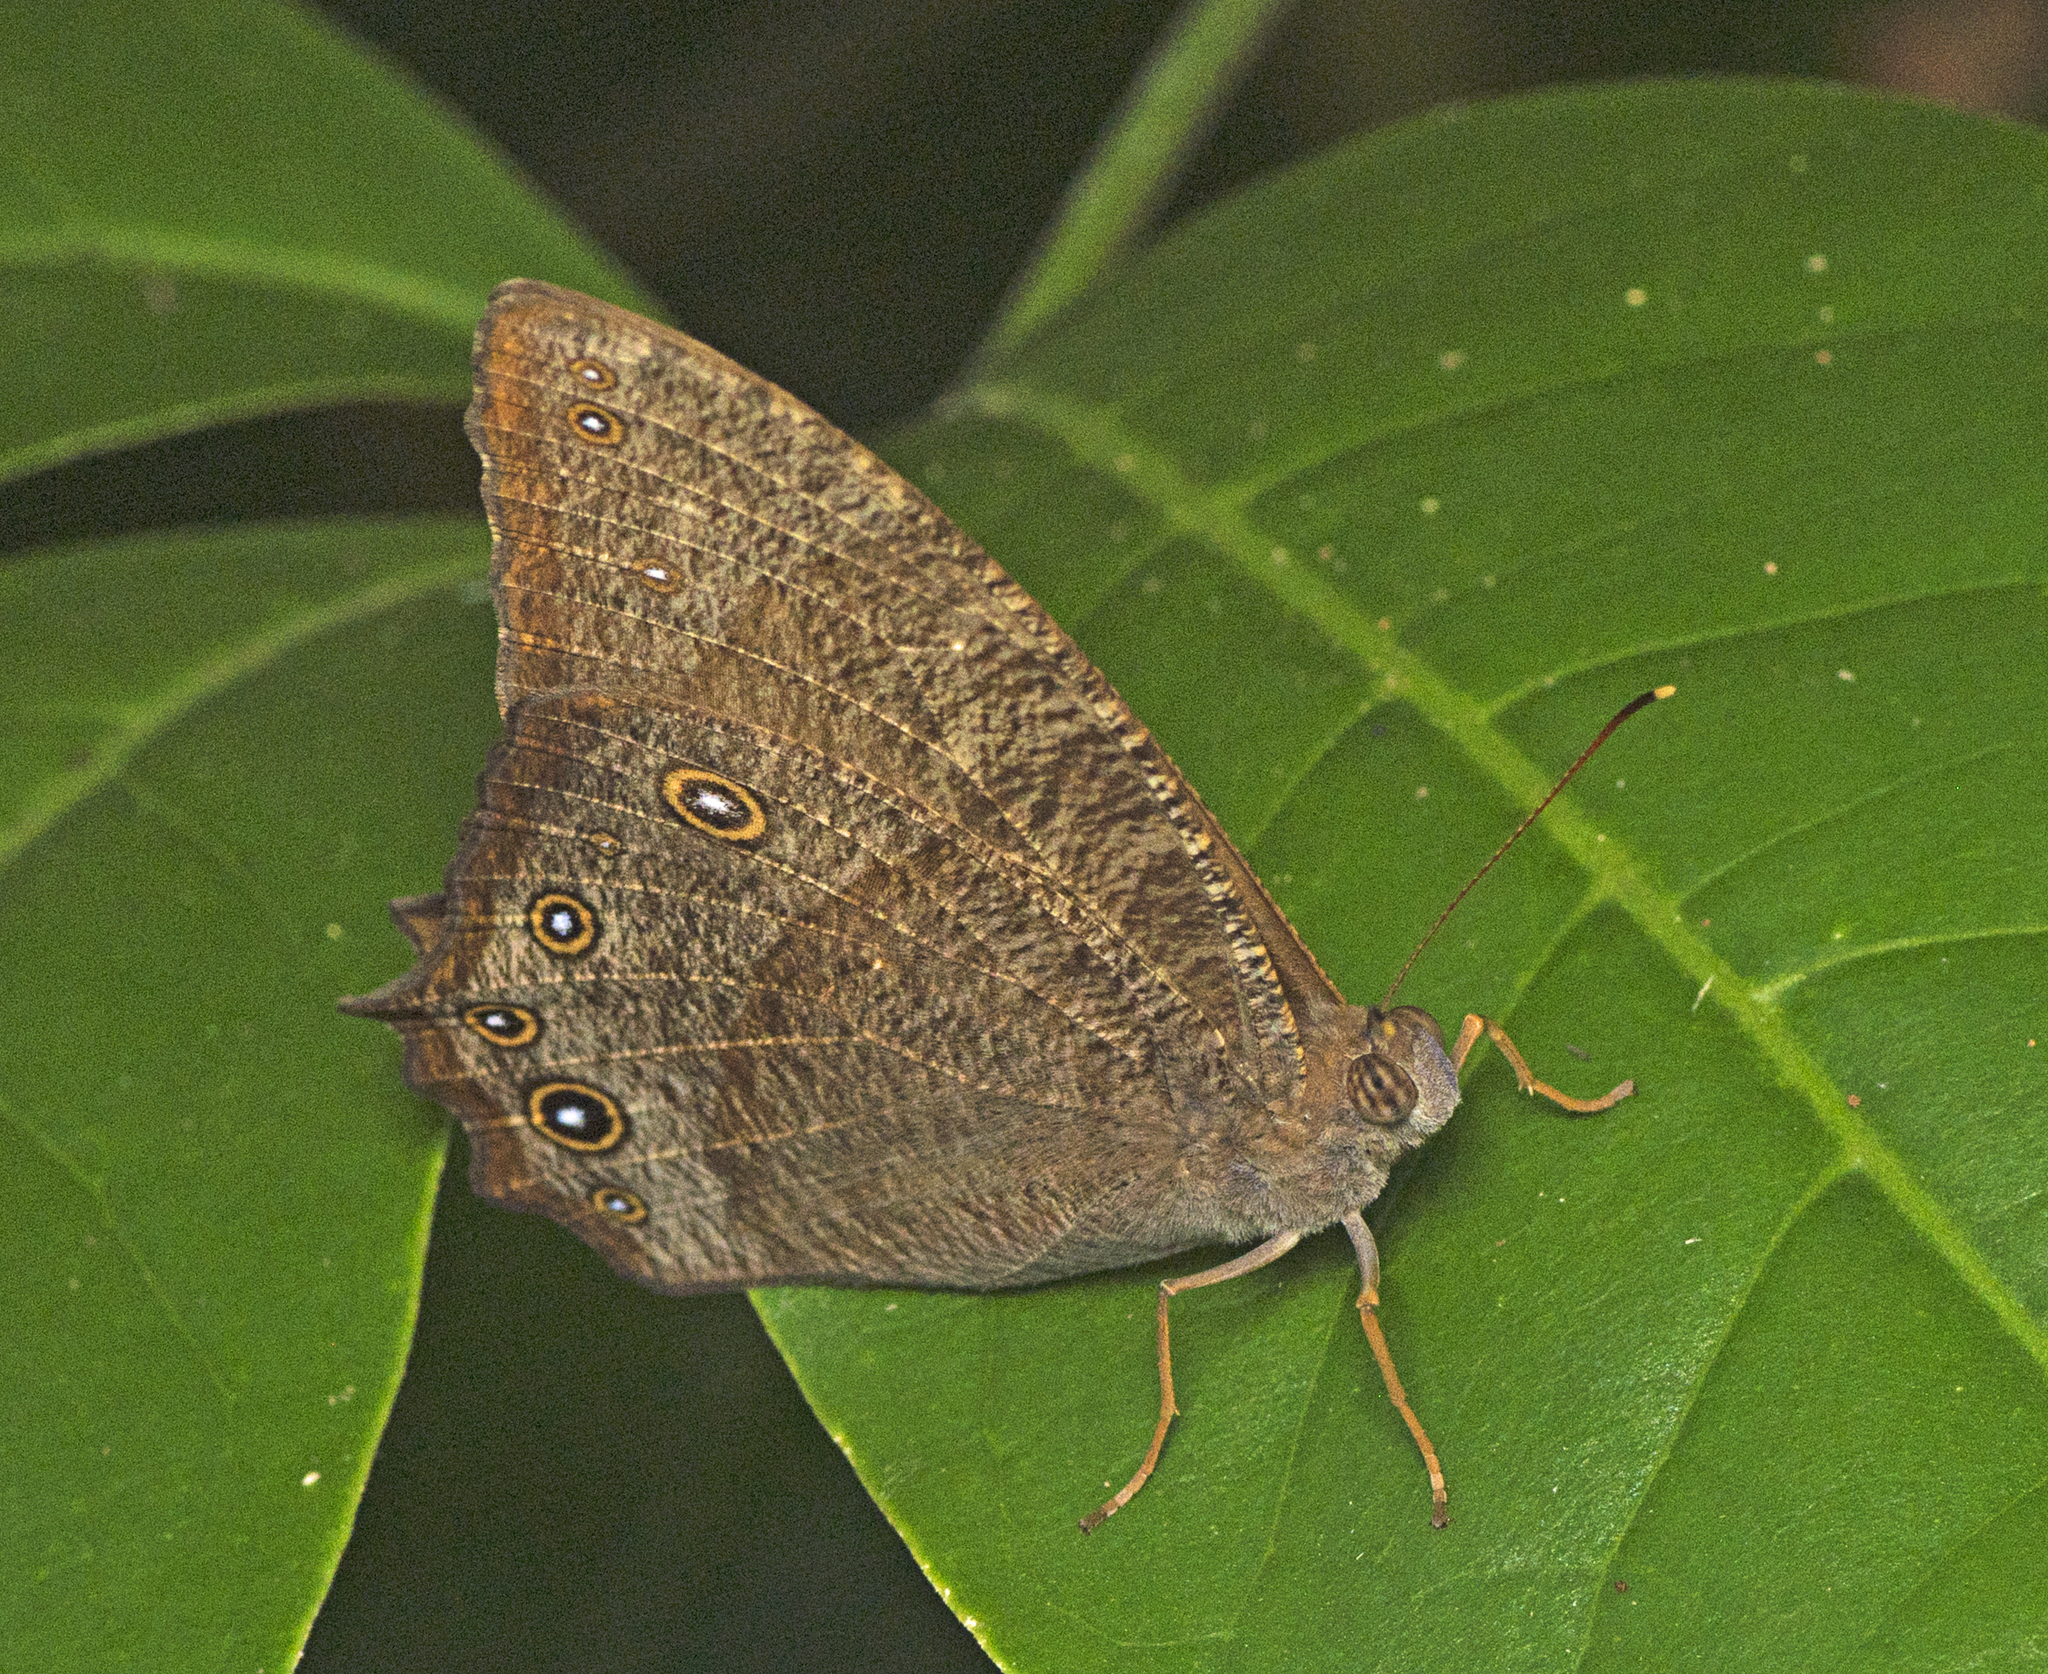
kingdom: Animalia
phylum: Arthropoda
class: Insecta
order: Lepidoptera
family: Nymphalidae
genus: Melanitis
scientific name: Melanitis leda
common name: Twilight brown
